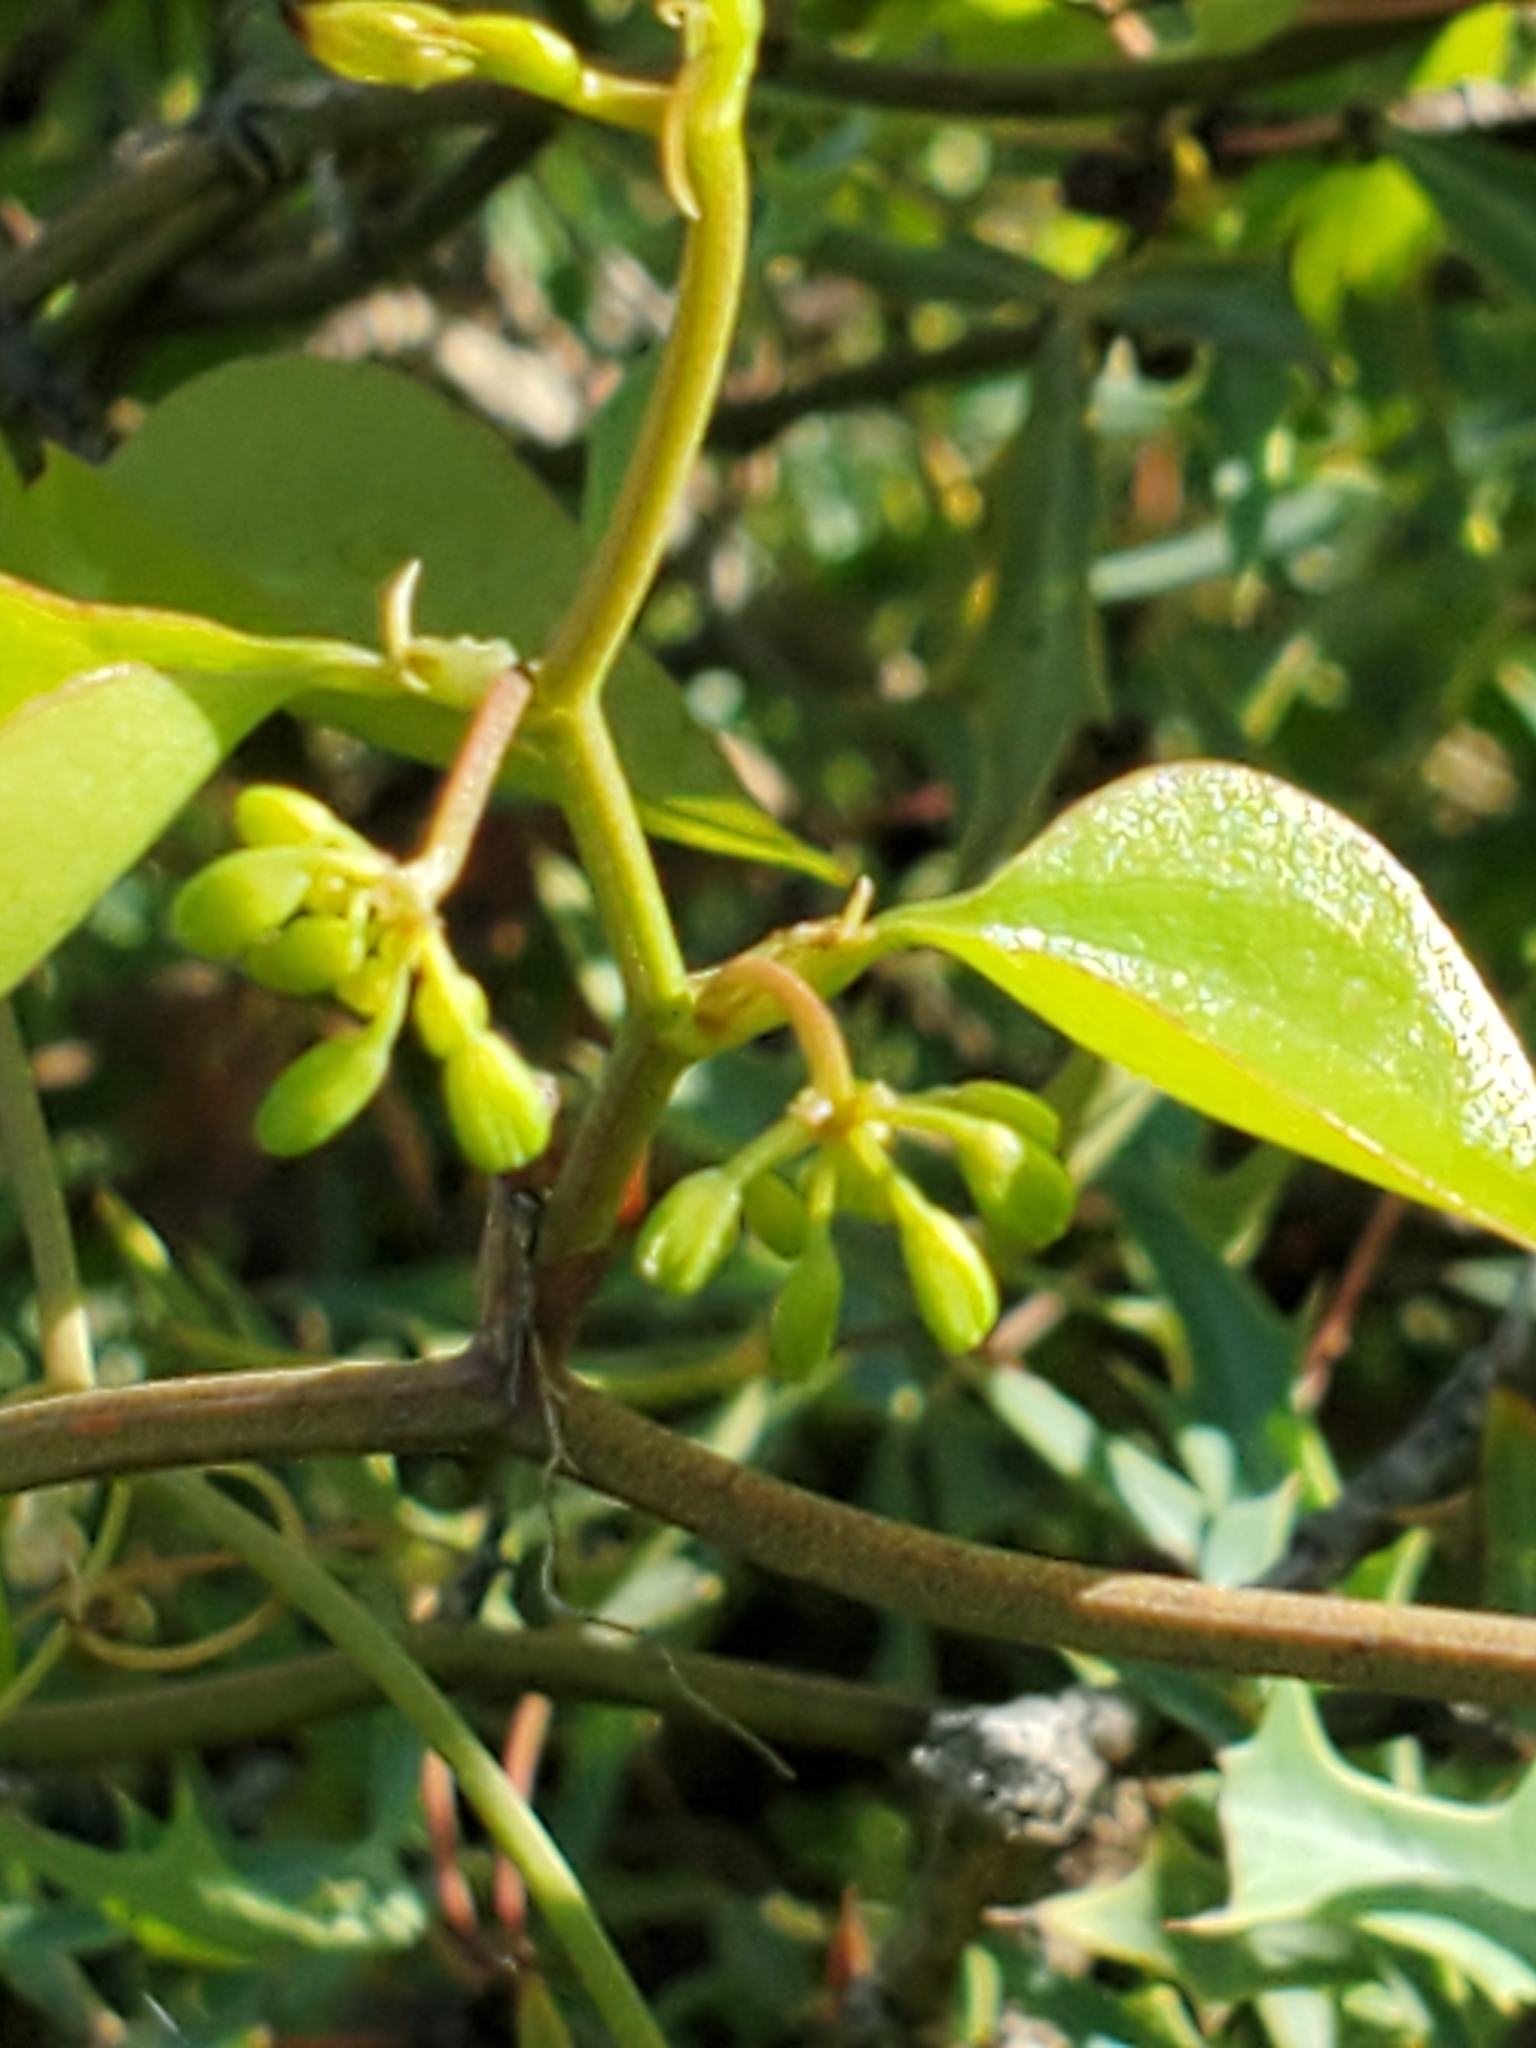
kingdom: Plantae
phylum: Tracheophyta
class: Liliopsida
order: Liliales
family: Smilacaceae
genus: Smilax
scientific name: Smilax bona-nox
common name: Catbrier
